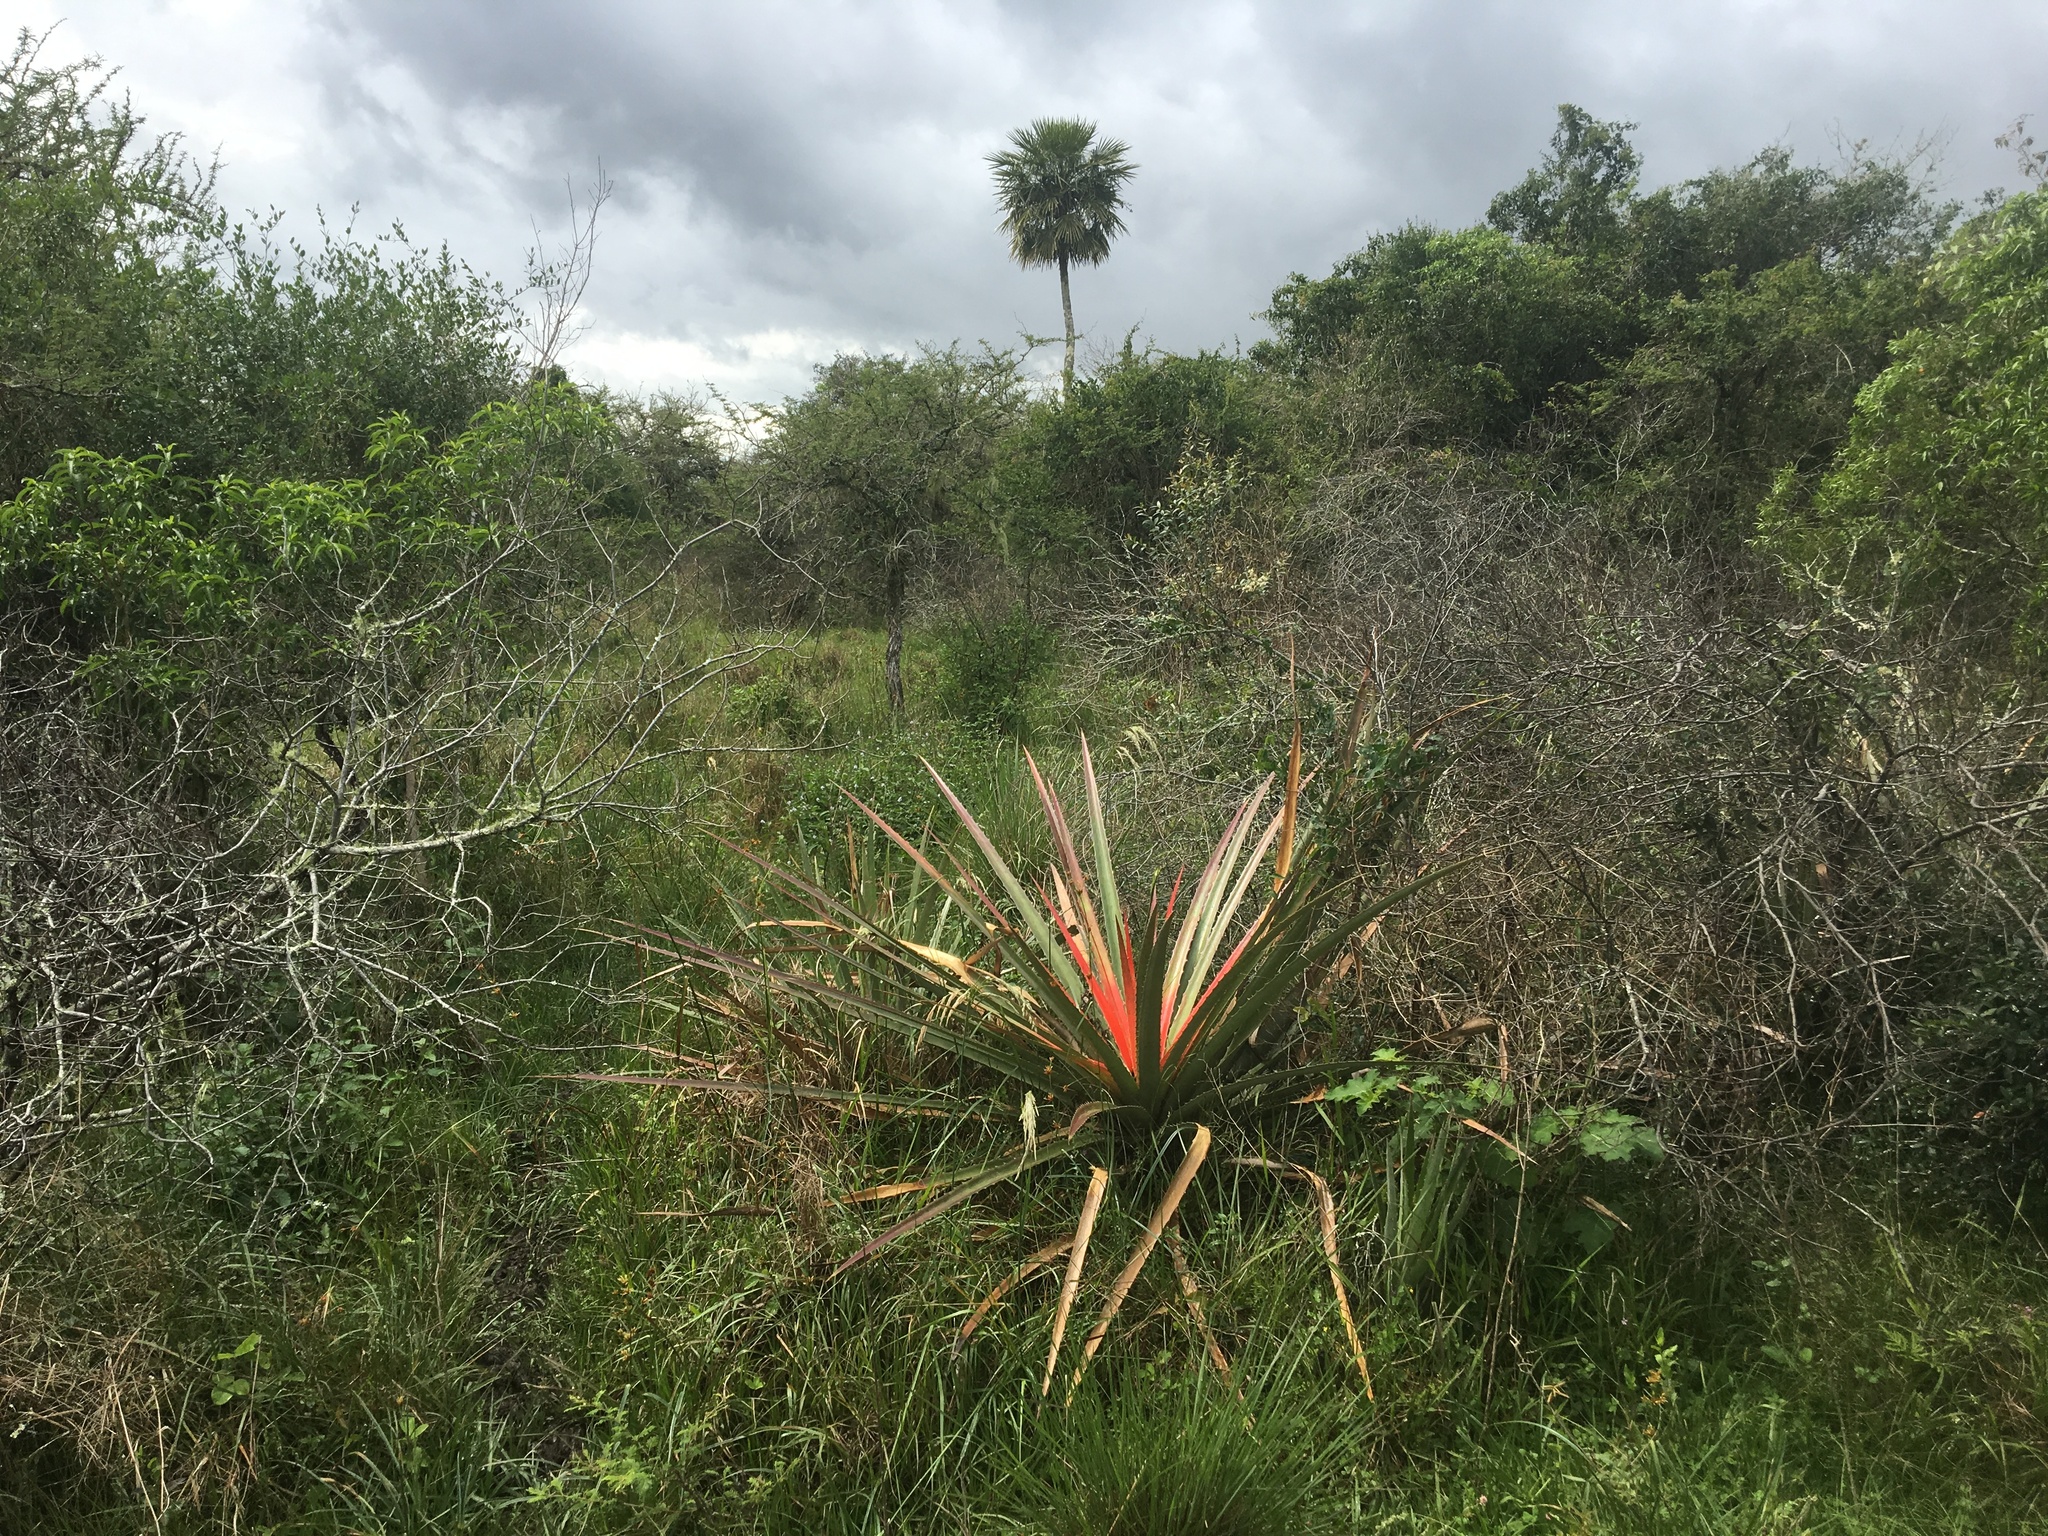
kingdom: Plantae
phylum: Tracheophyta
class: Liliopsida
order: Poales
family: Bromeliaceae
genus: Bromelia
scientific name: Bromelia balansae
